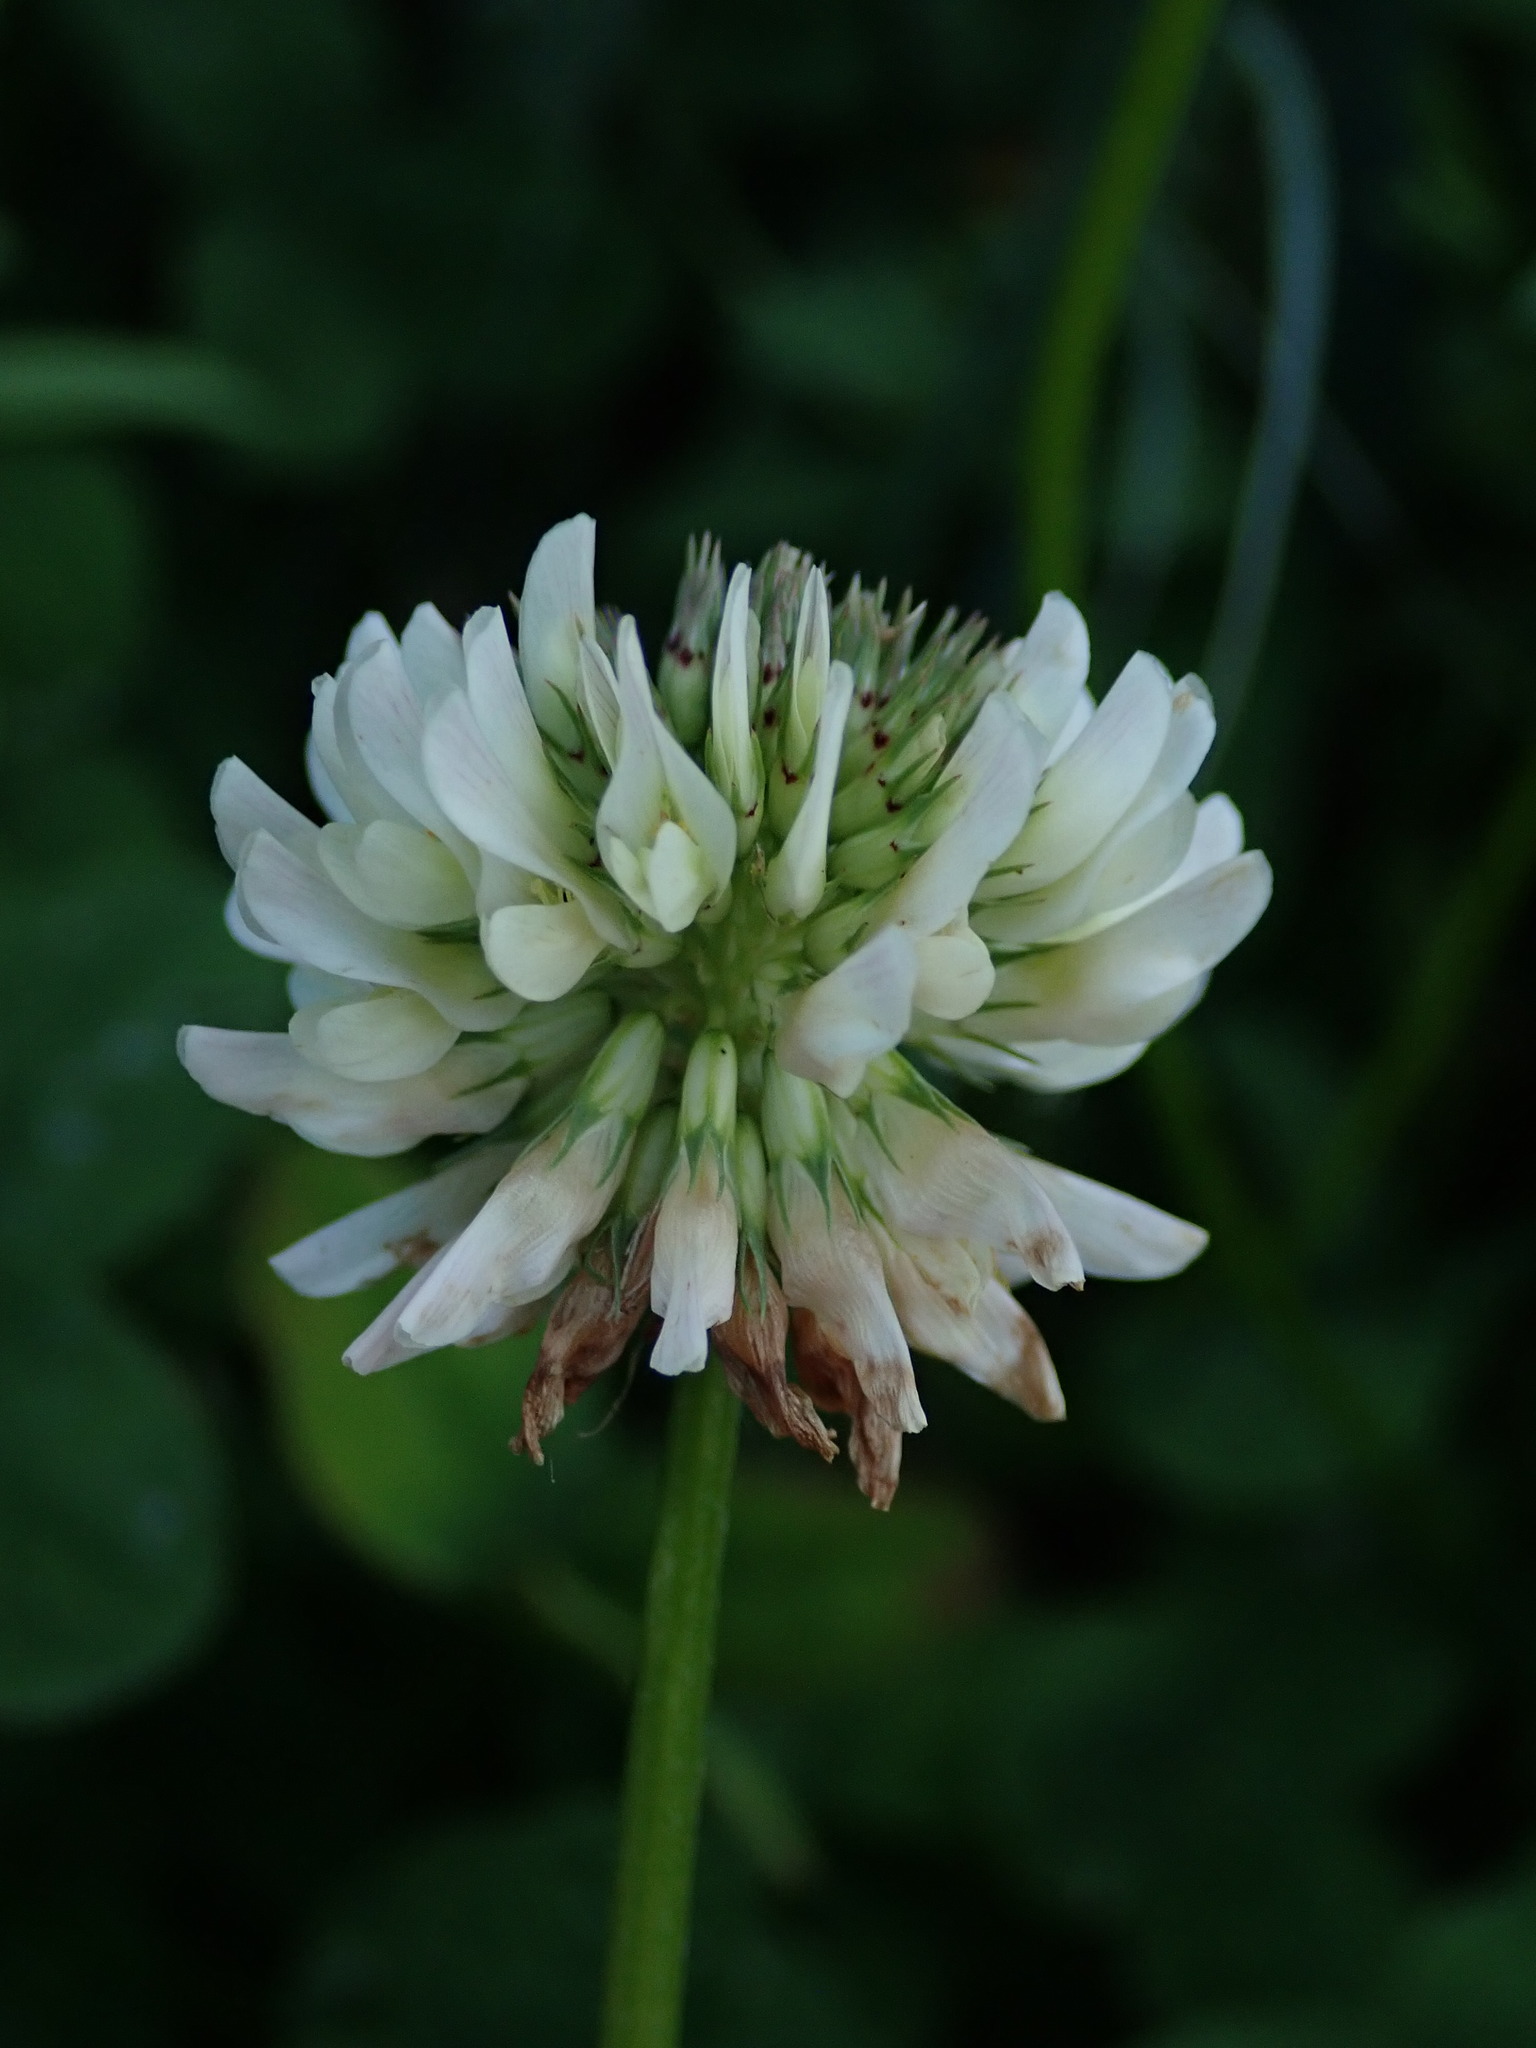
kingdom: Plantae
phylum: Tracheophyta
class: Magnoliopsida
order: Fabales
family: Fabaceae
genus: Trifolium
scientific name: Trifolium repens
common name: White clover
